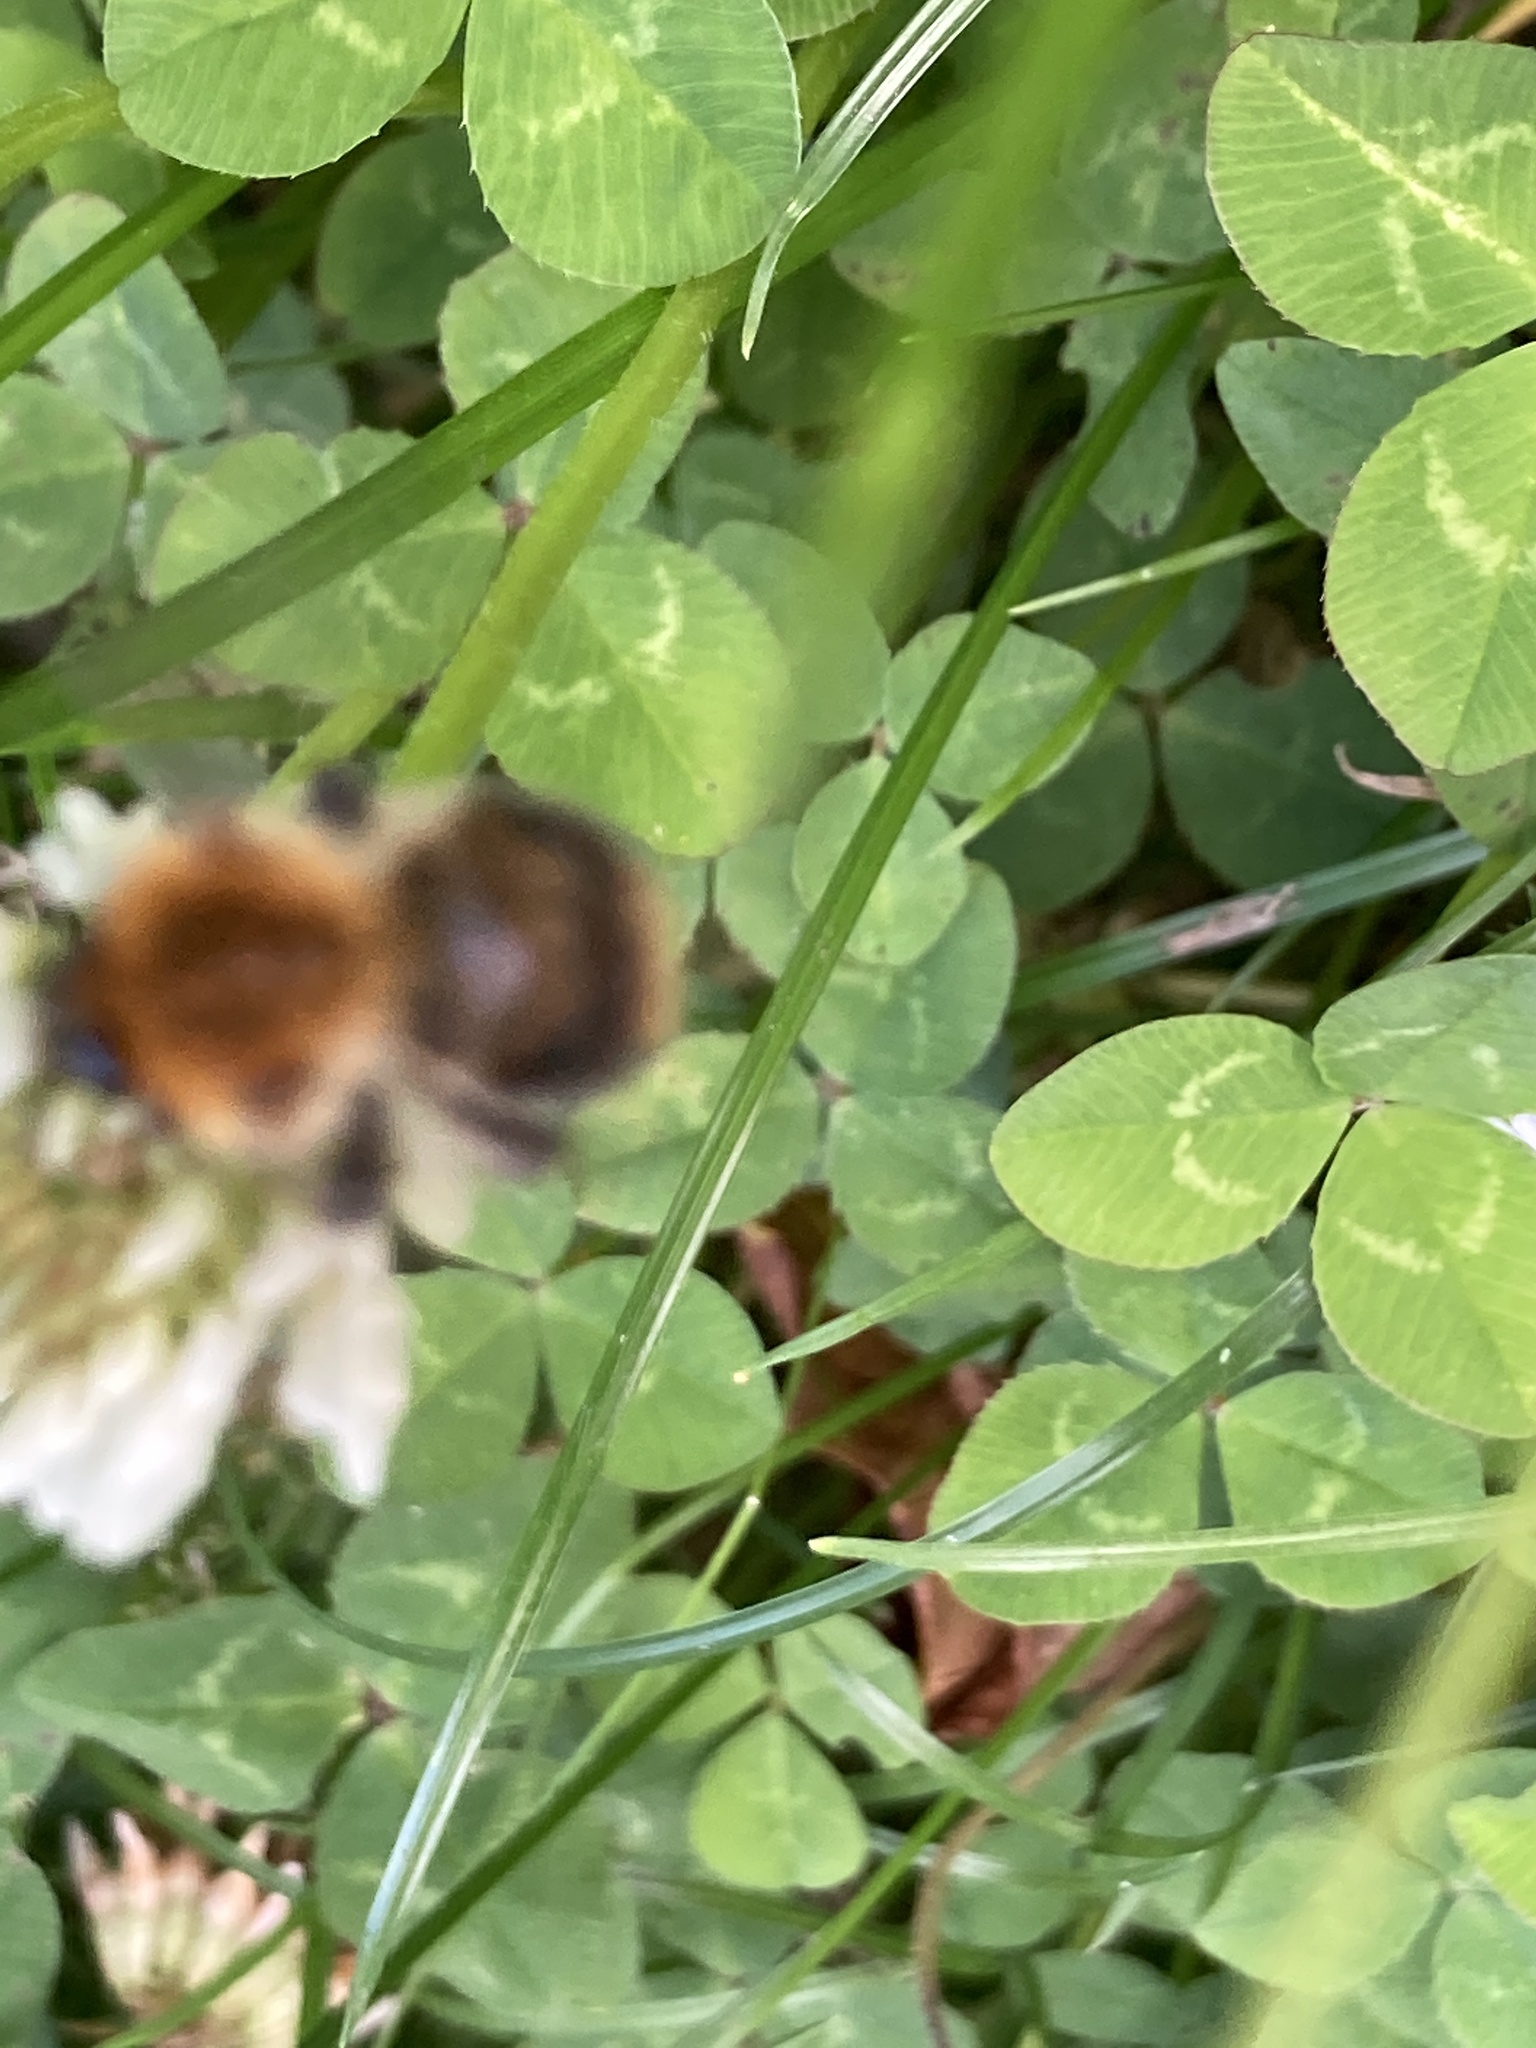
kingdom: Animalia
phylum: Arthropoda
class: Insecta
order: Hymenoptera
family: Apidae
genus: Bombus
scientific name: Bombus pascuorum
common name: Common carder bee
